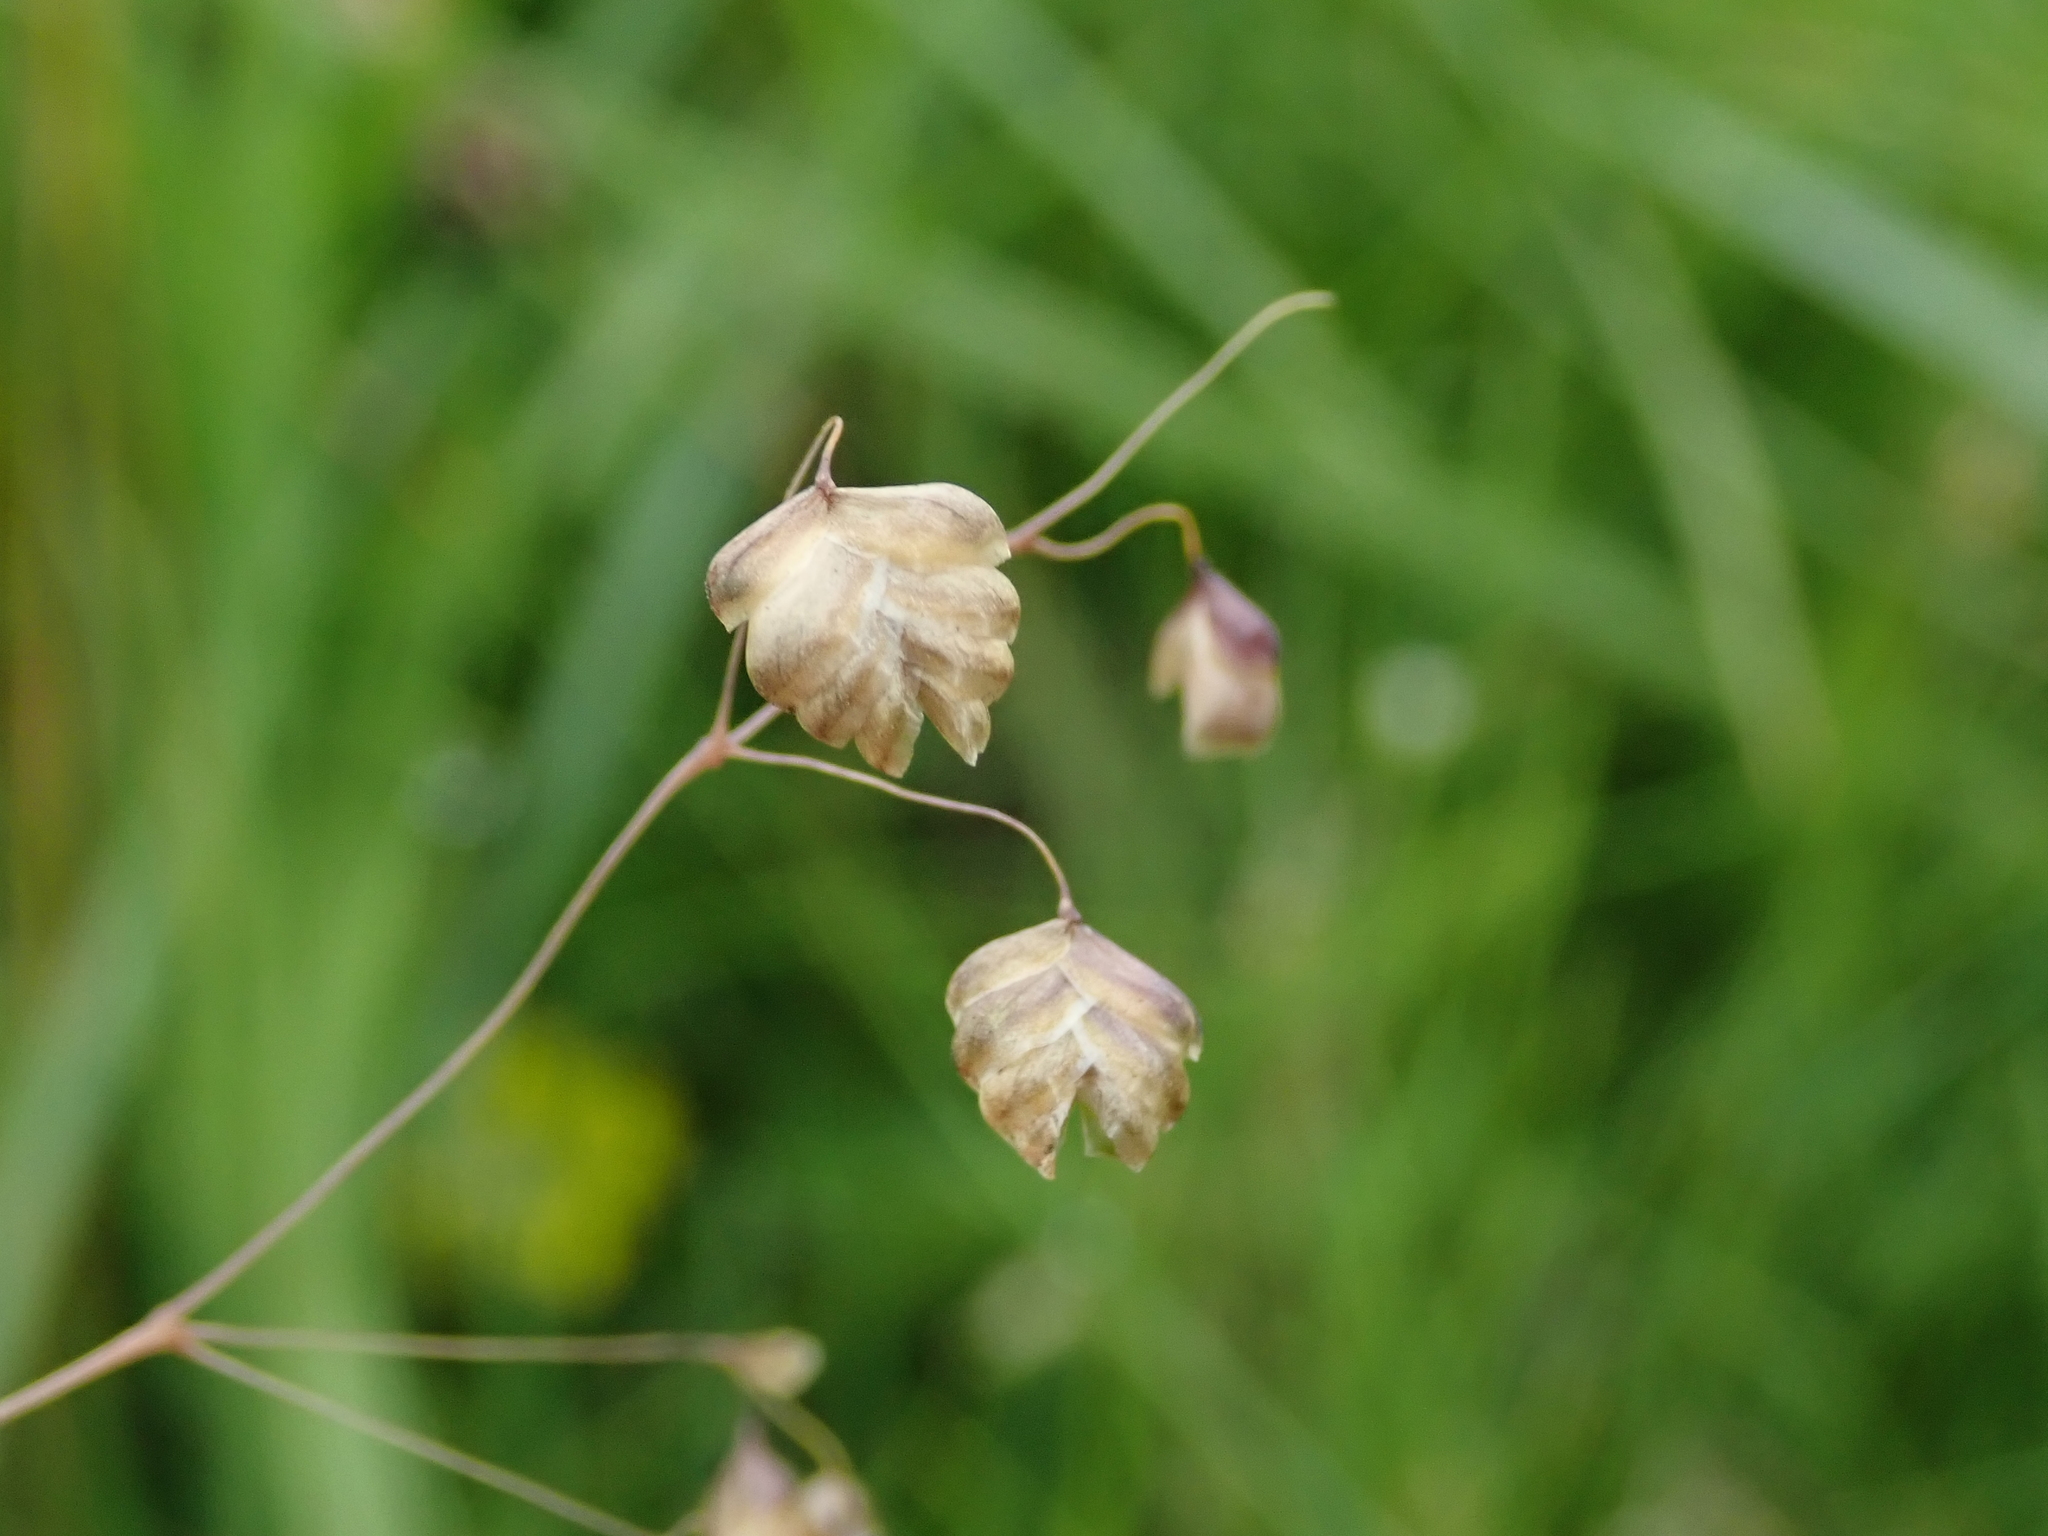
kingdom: Plantae
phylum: Tracheophyta
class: Liliopsida
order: Poales
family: Poaceae
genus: Briza
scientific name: Briza media
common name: Quaking grass
